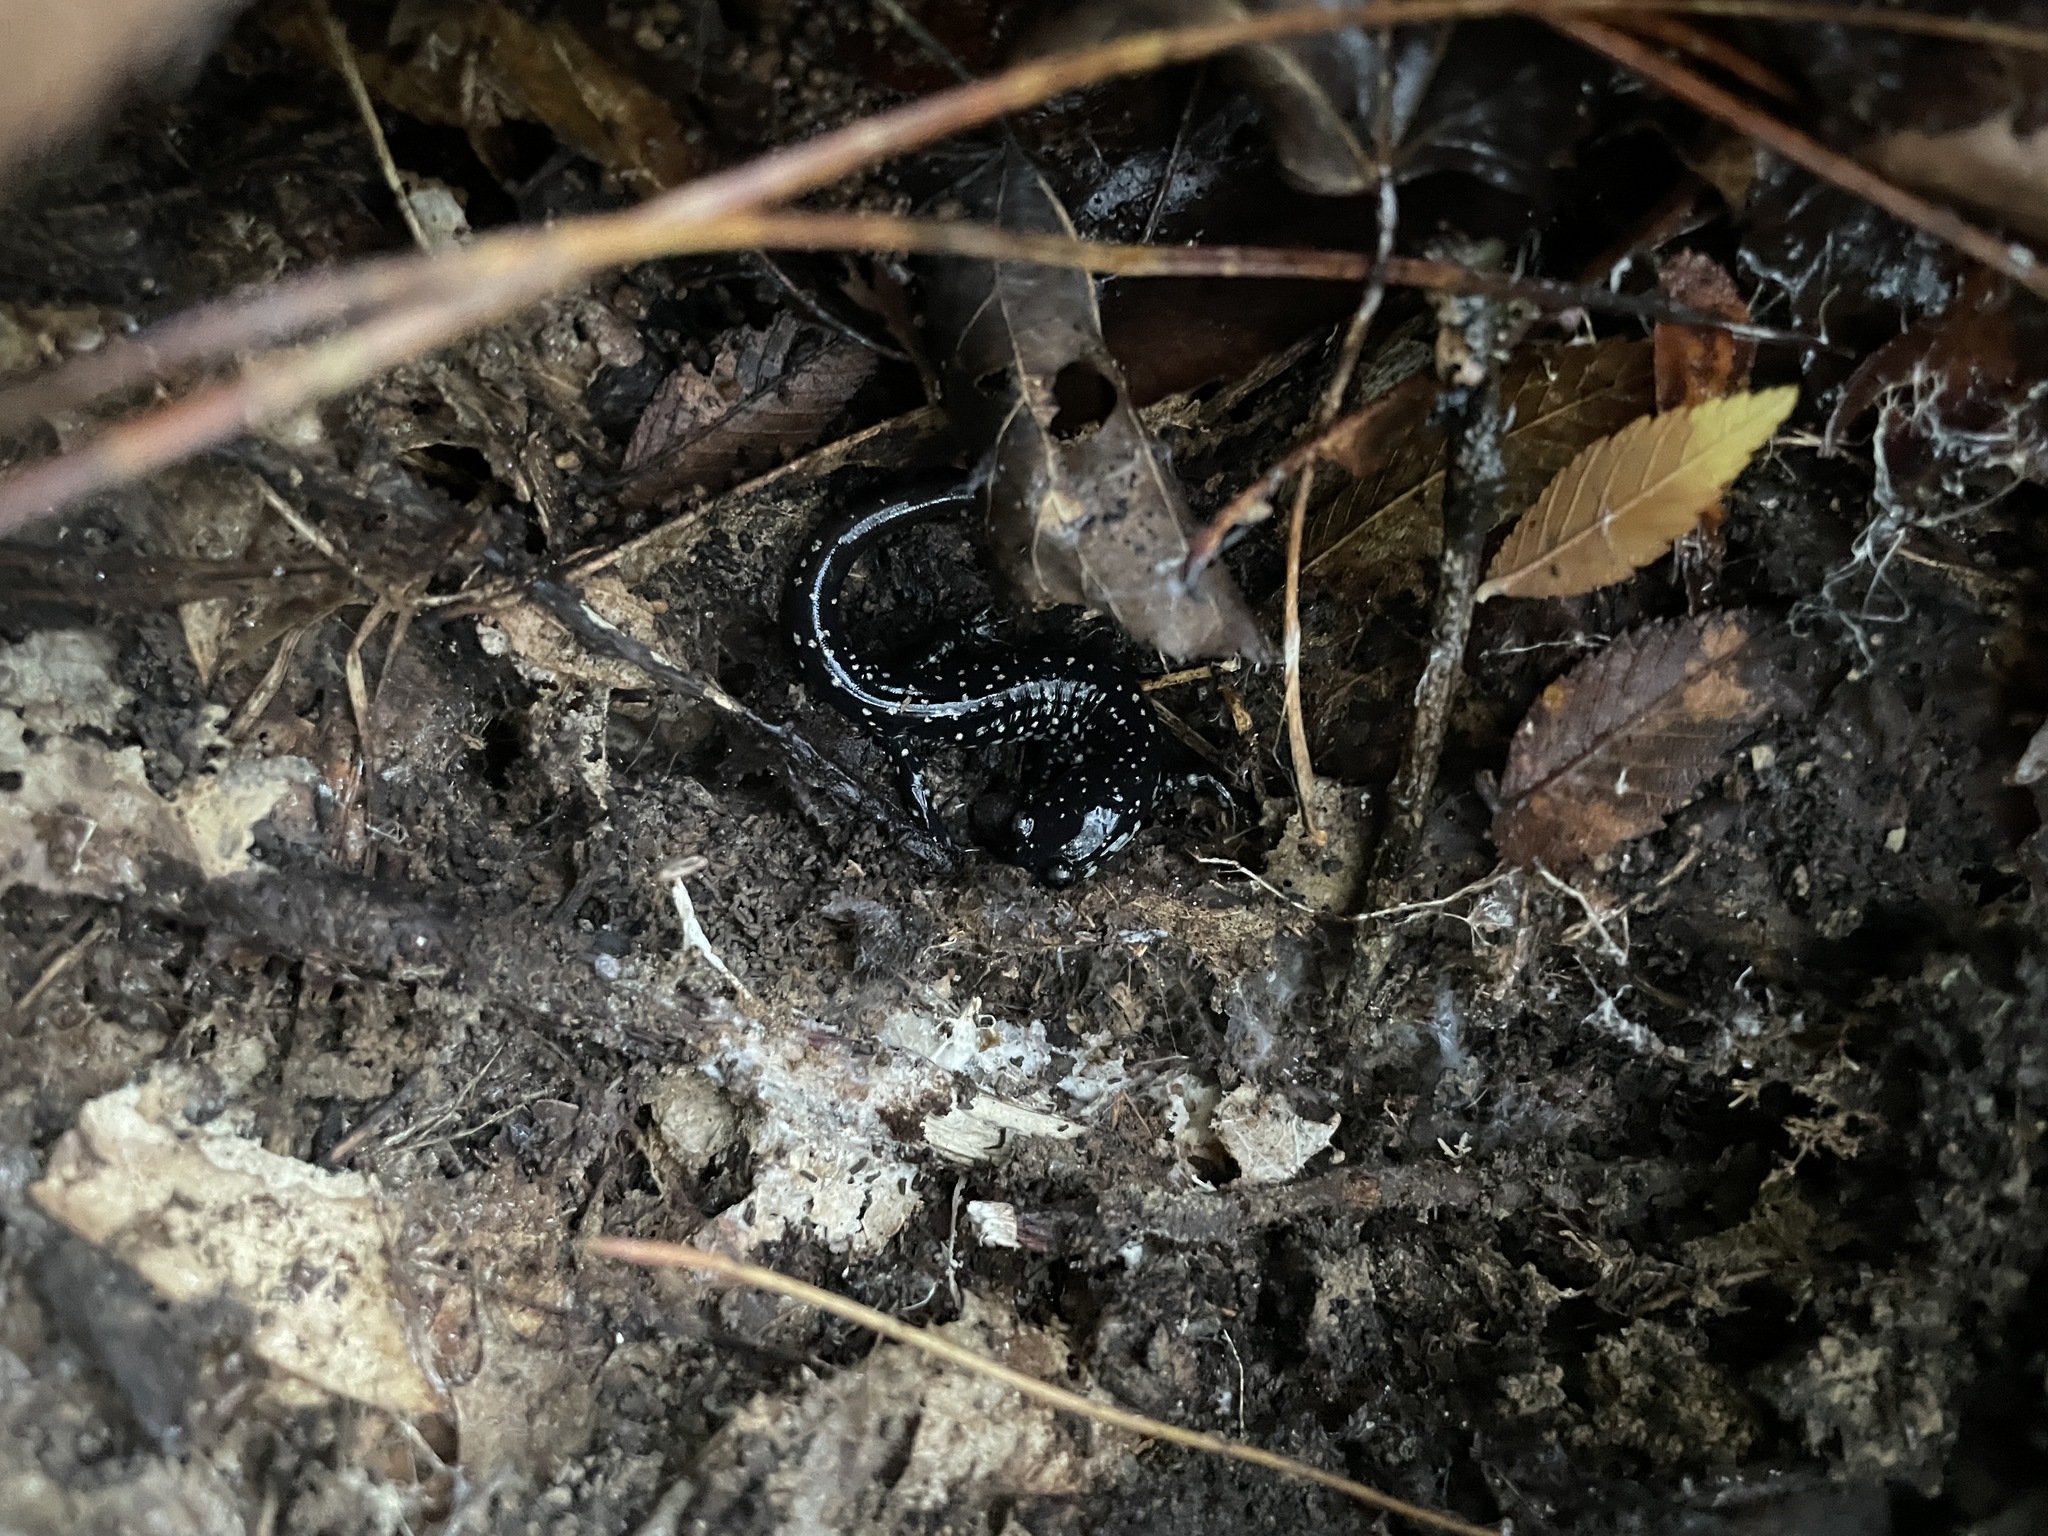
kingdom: Animalia
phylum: Chordata
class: Amphibia
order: Caudata
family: Plethodontidae
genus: Plethodon
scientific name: Plethodon mississippi
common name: Mississippi slimy salamander
